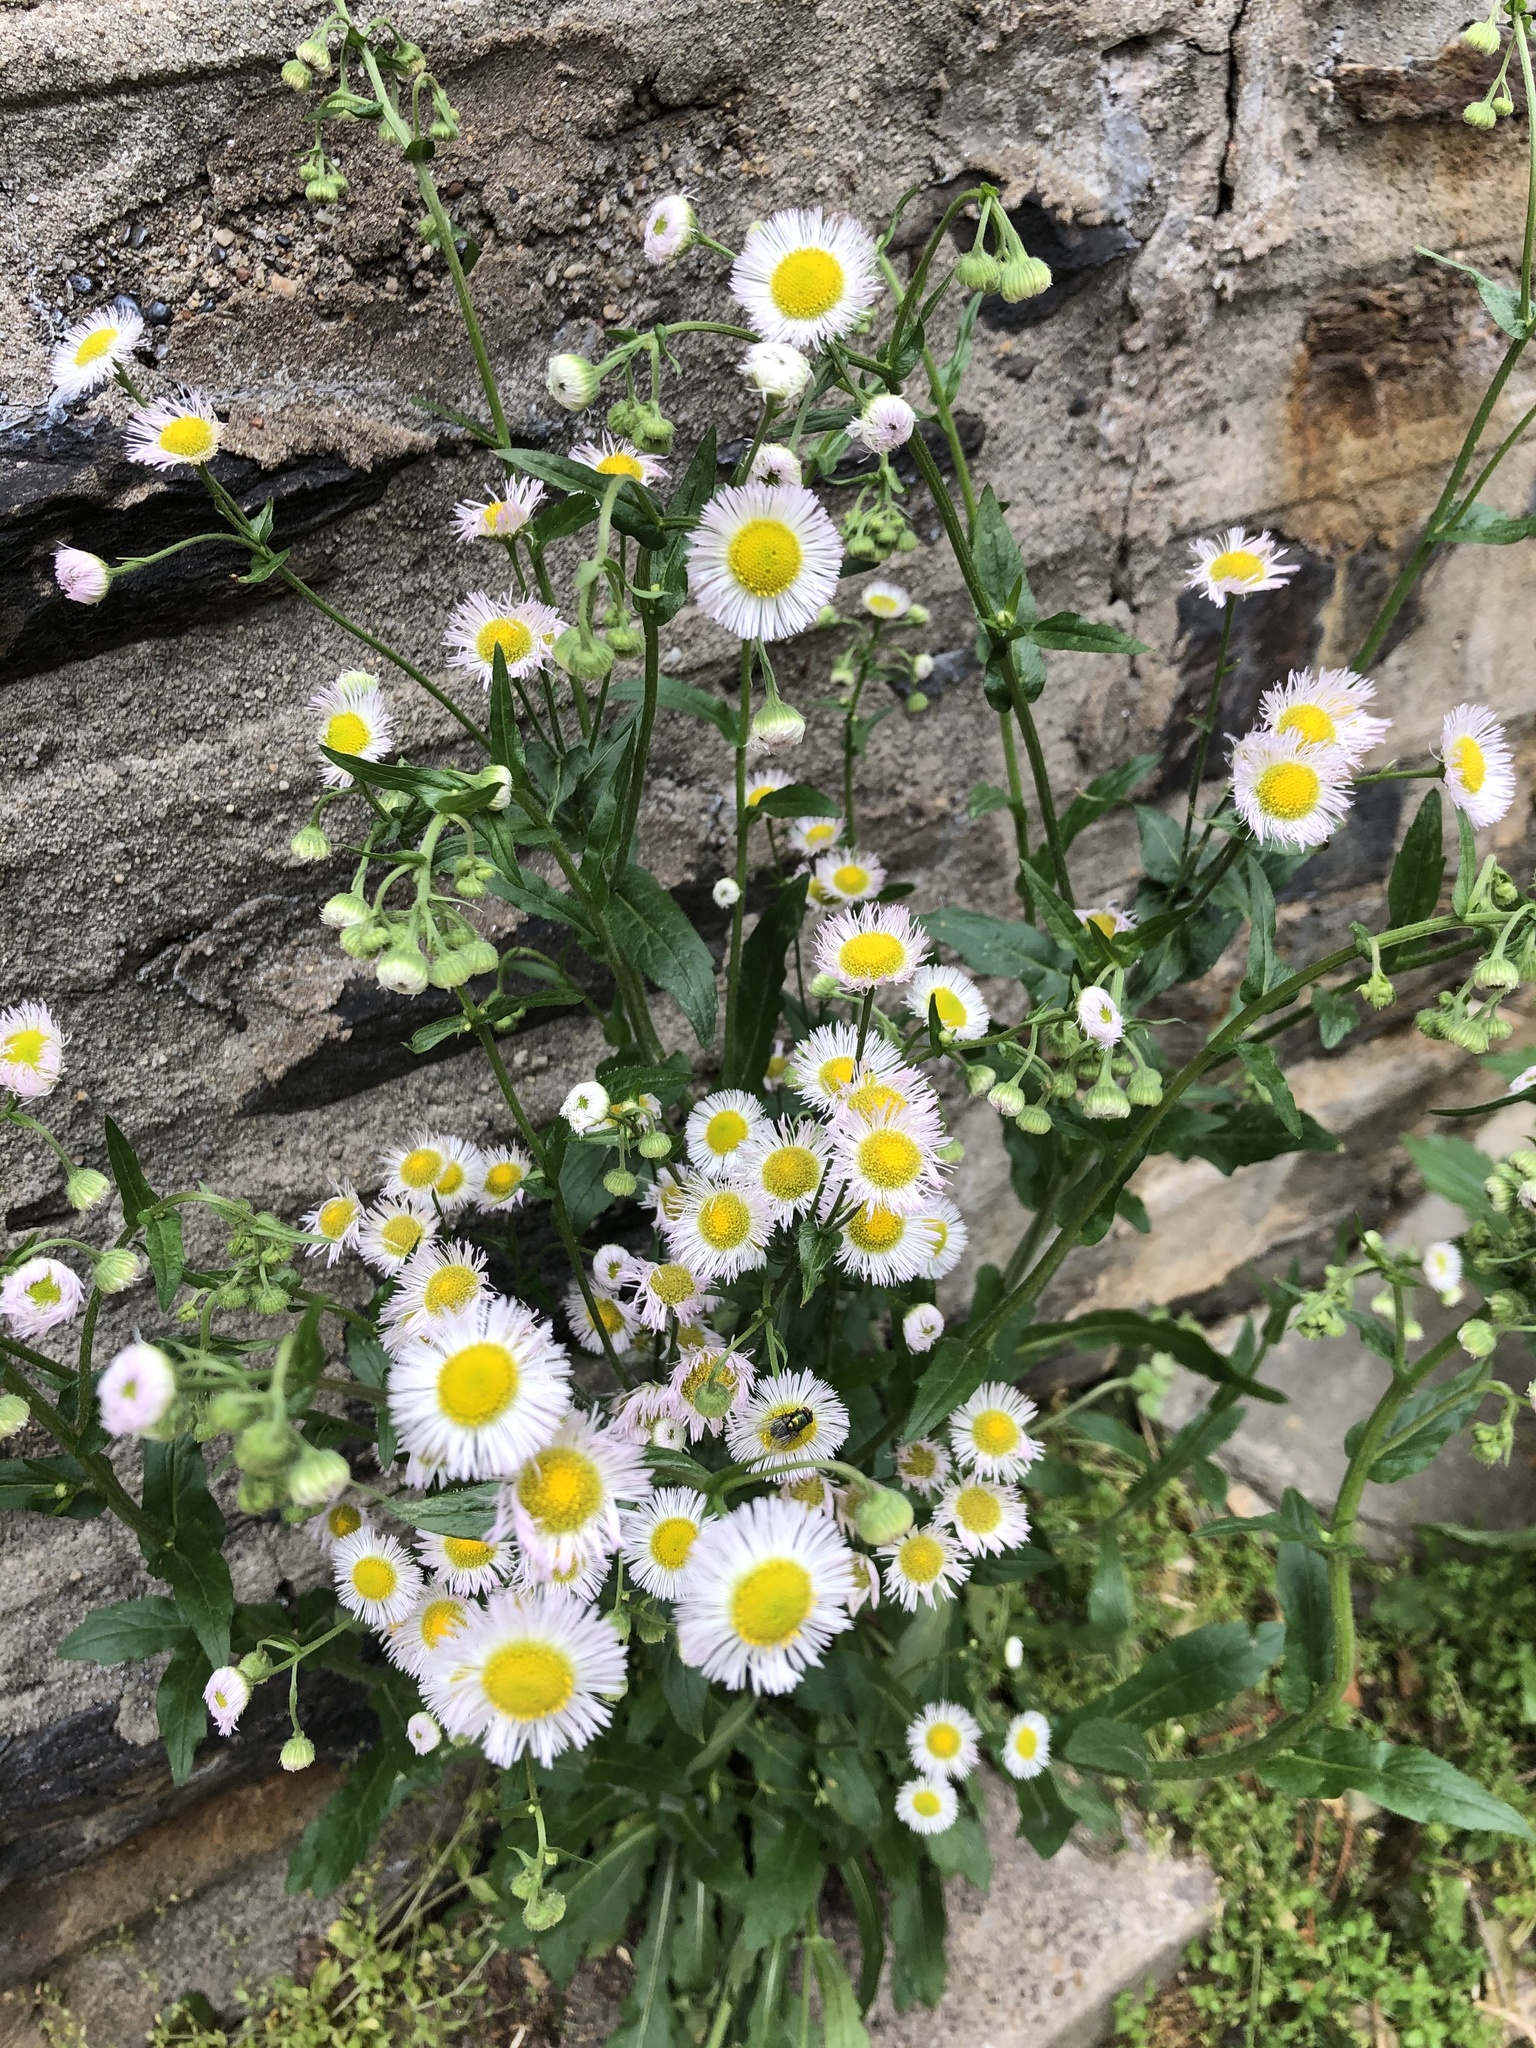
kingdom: Plantae
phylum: Tracheophyta
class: Magnoliopsida
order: Asterales
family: Asteraceae
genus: Erigeron
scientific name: Erigeron philadelphicus
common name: Robin's-plantain
